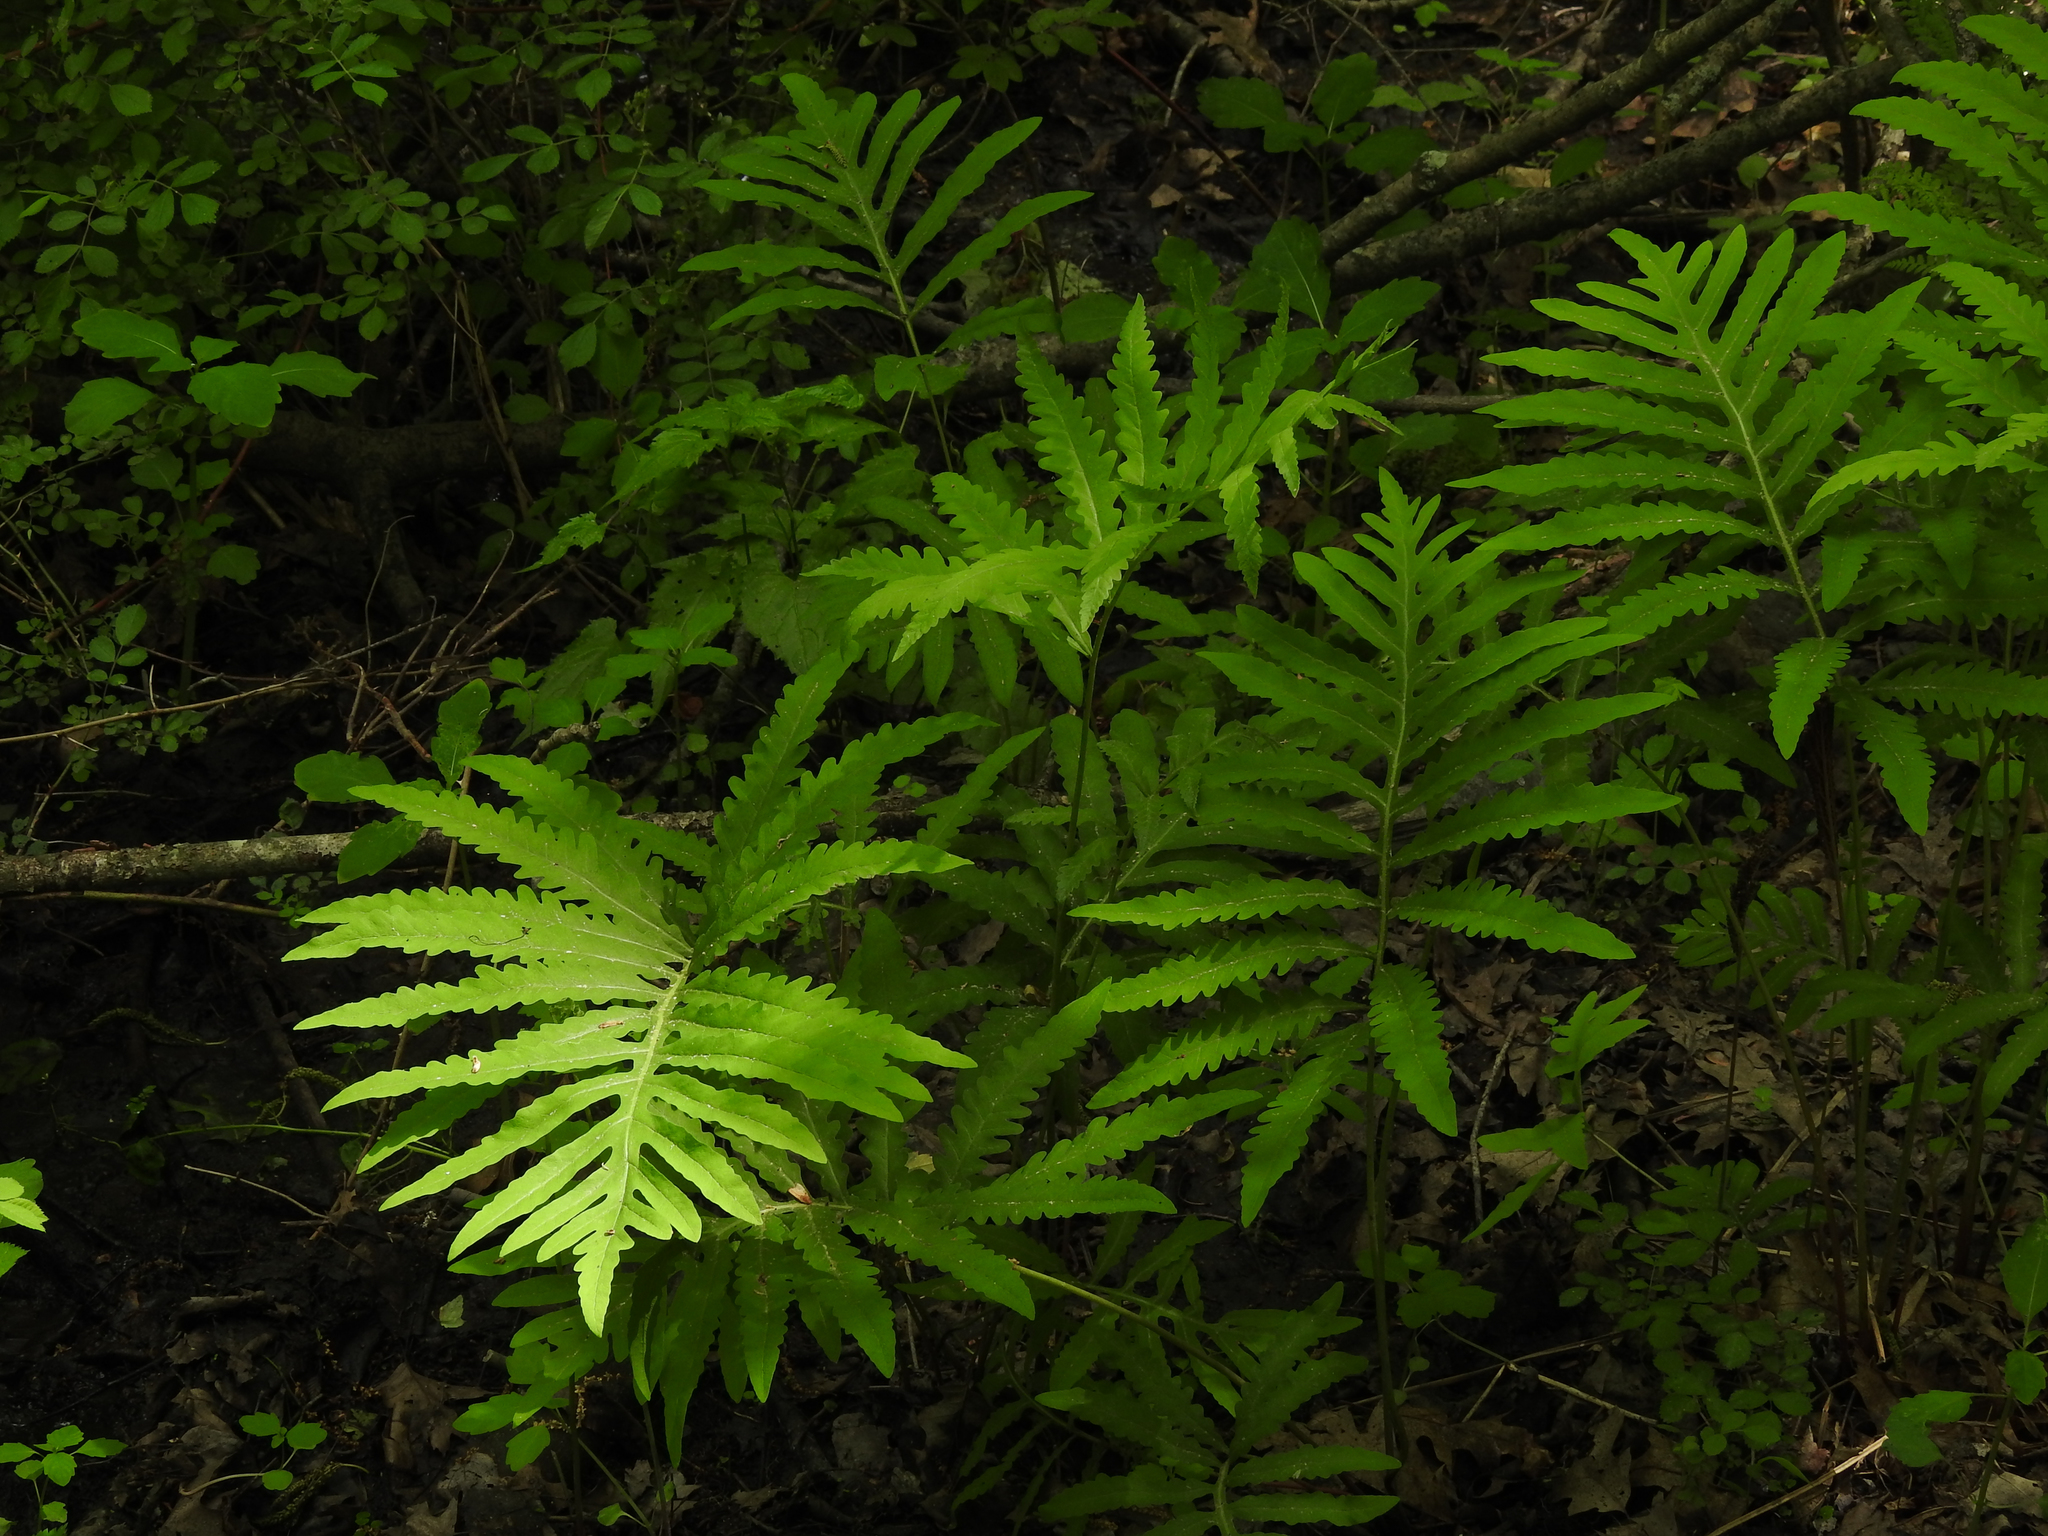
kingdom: Plantae
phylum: Tracheophyta
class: Polypodiopsida
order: Polypodiales
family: Onocleaceae
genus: Onoclea
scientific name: Onoclea sensibilis
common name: Sensitive fern
